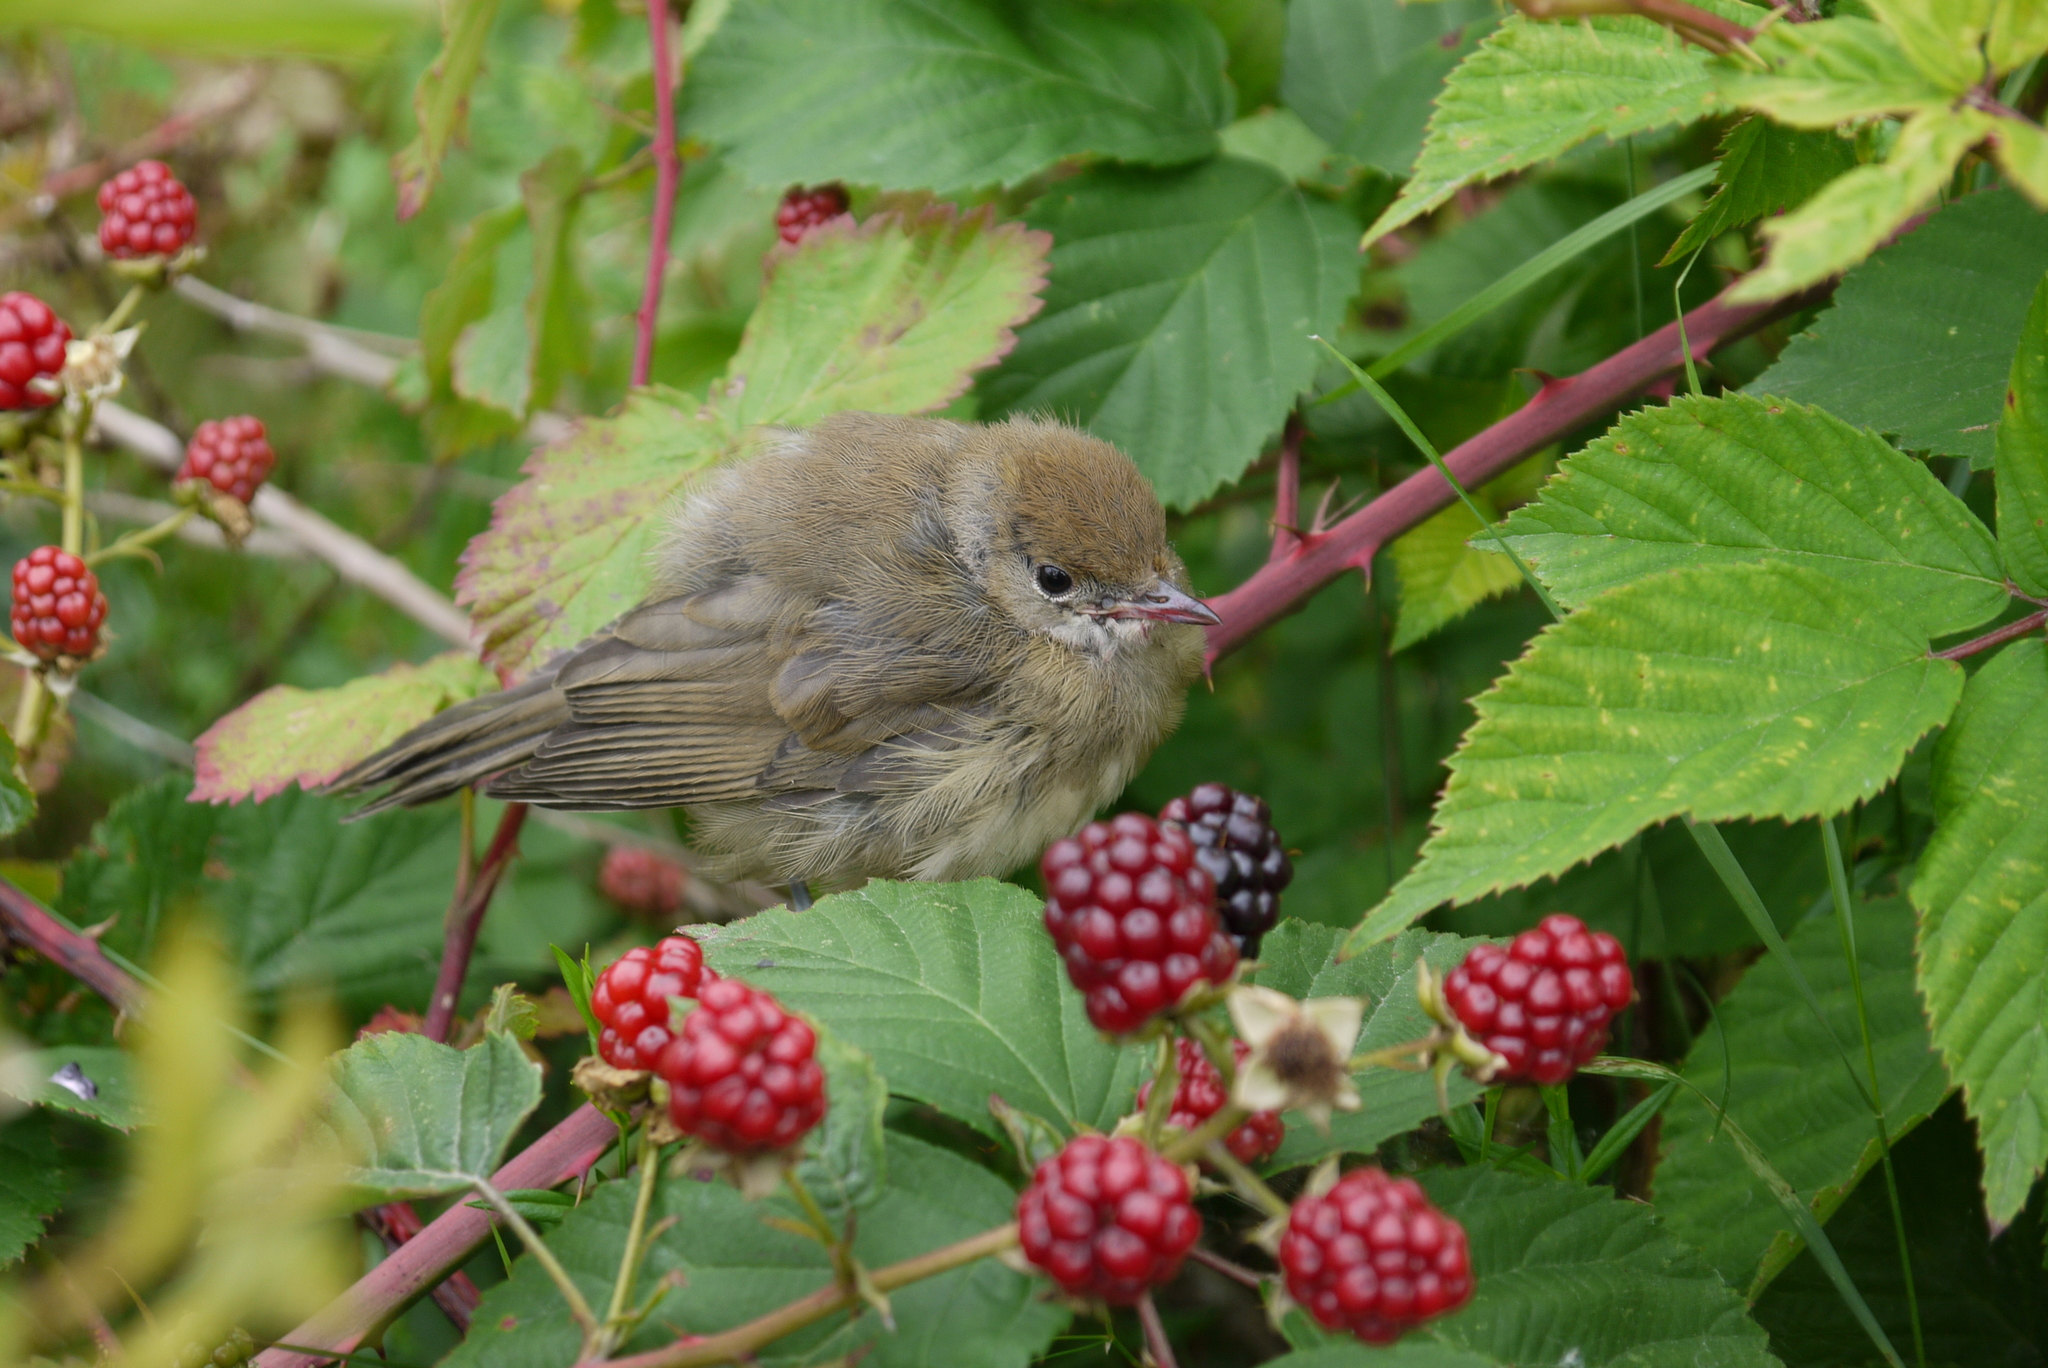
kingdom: Animalia
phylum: Chordata
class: Aves
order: Passeriformes
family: Sylviidae
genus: Sylvia
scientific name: Sylvia atricapilla
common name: Eurasian blackcap
